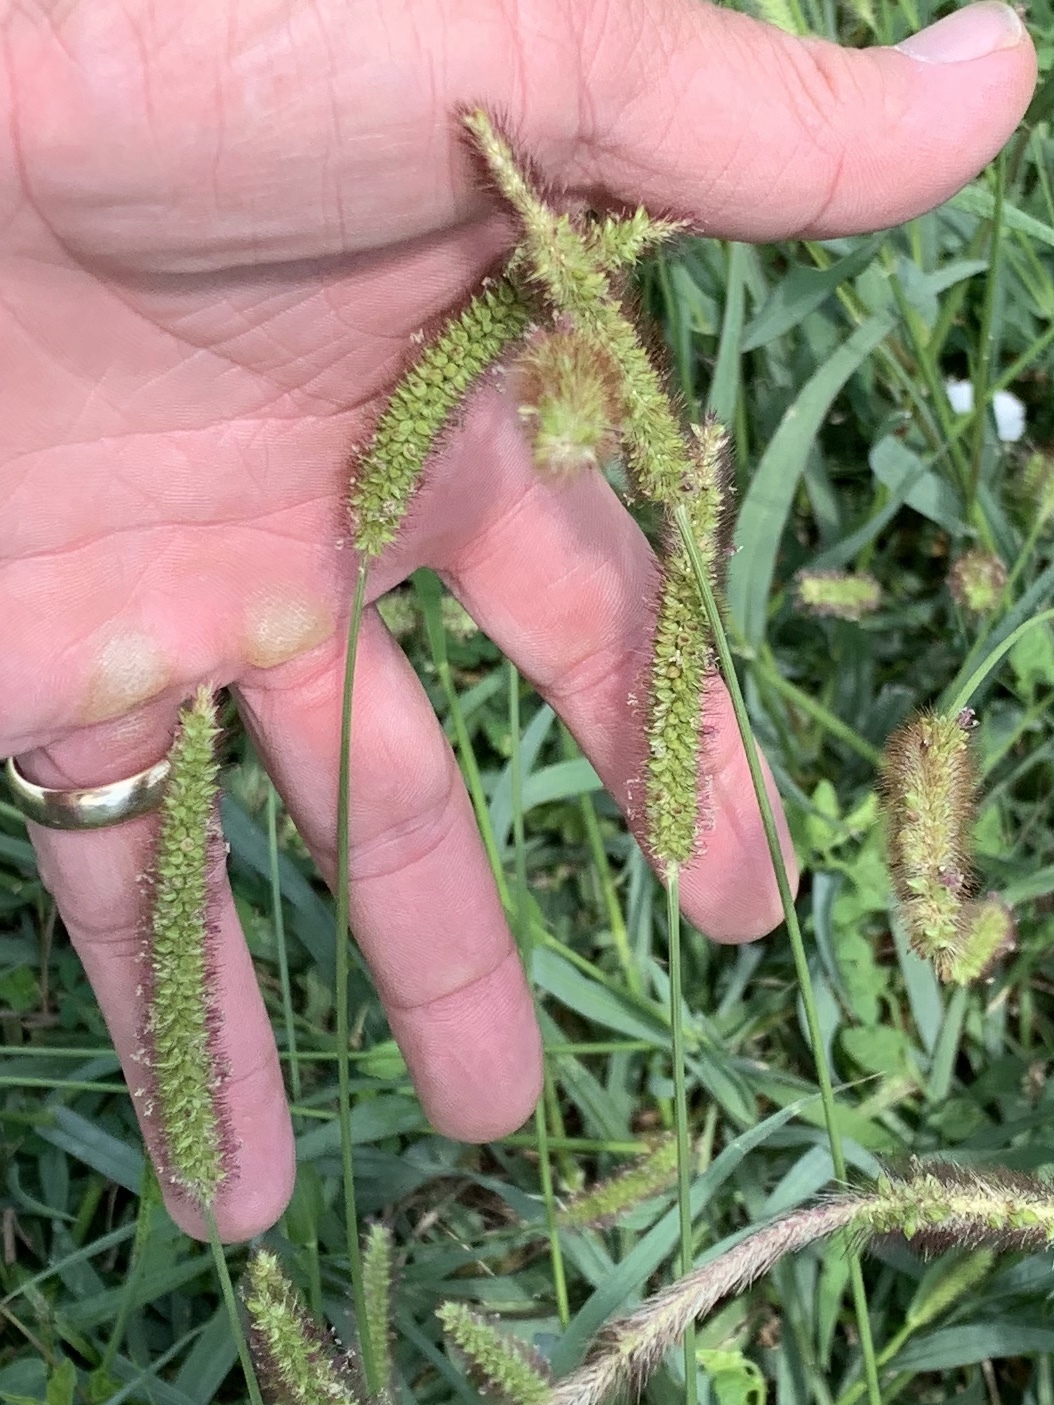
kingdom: Plantae
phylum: Tracheophyta
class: Liliopsida
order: Poales
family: Poaceae
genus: Setaria
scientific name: Setaria pumila
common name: Yellow bristle-grass
